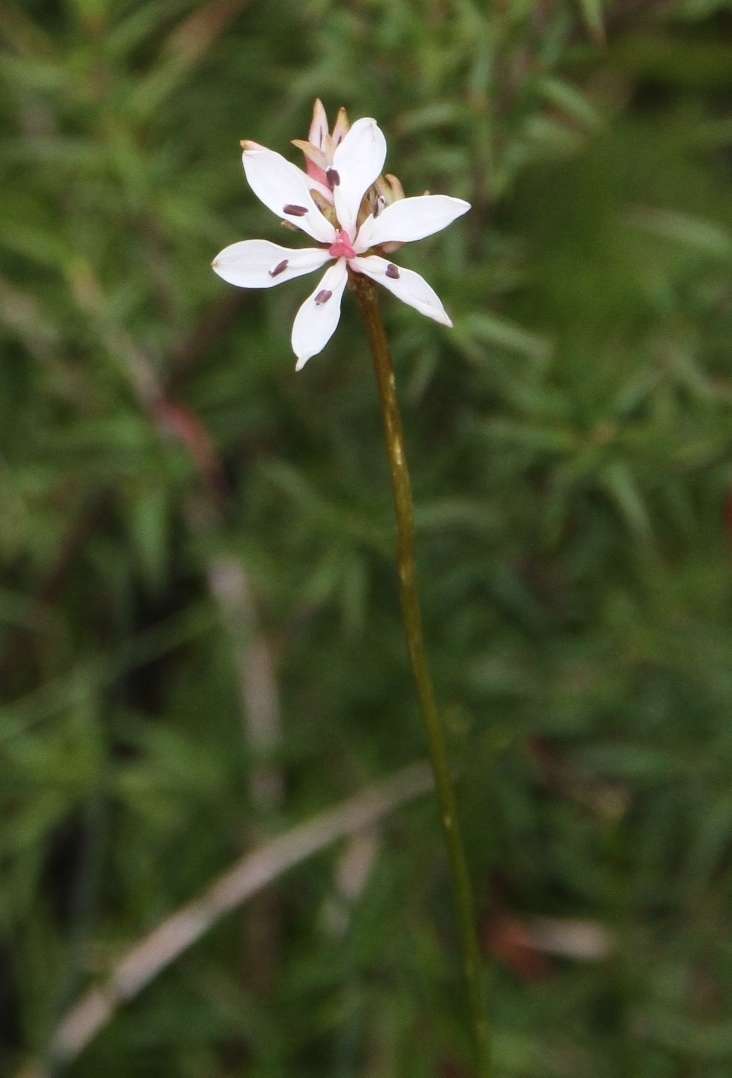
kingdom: Plantae
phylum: Tracheophyta
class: Liliopsida
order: Liliales
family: Colchicaceae
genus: Burchardia
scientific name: Burchardia umbellata
